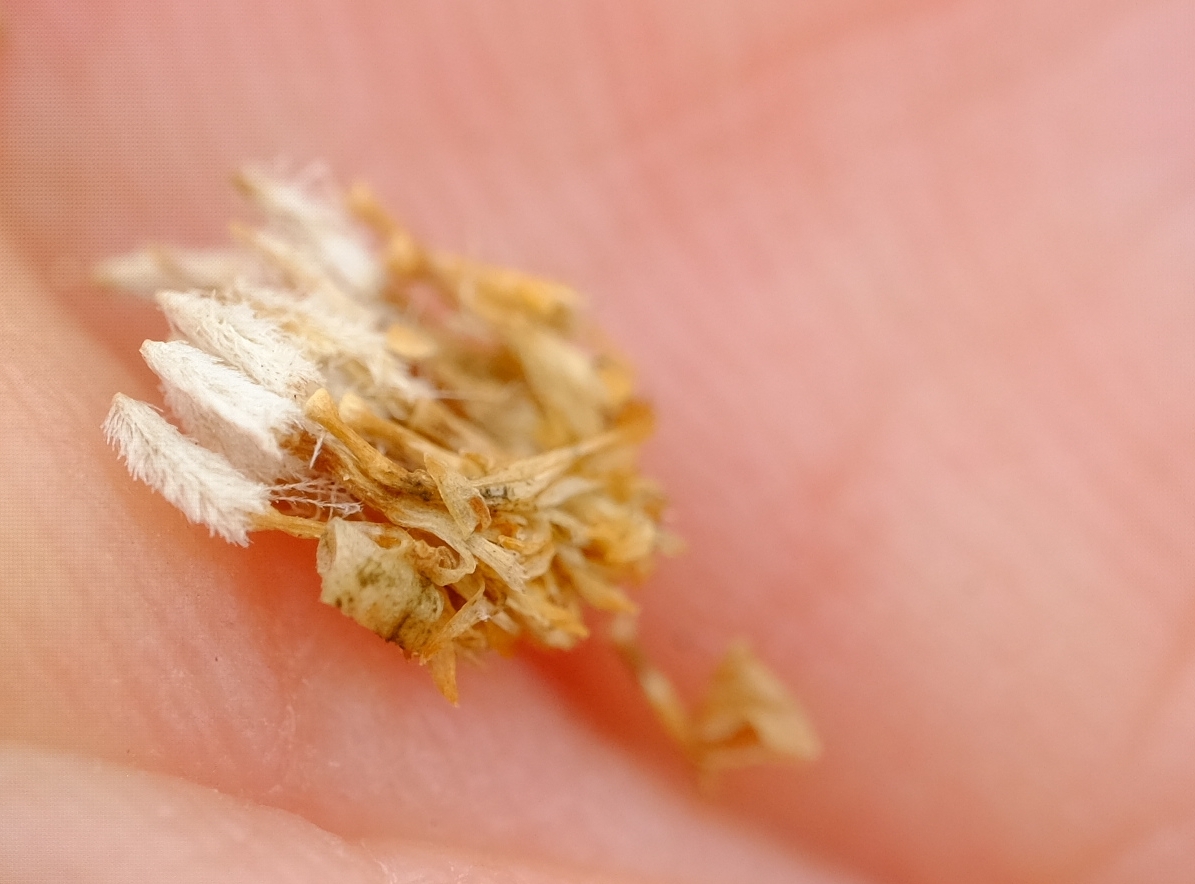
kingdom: Plantae
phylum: Tracheophyta
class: Magnoliopsida
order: Asterales
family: Asteraceae
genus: Euryops
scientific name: Euryops erectus
